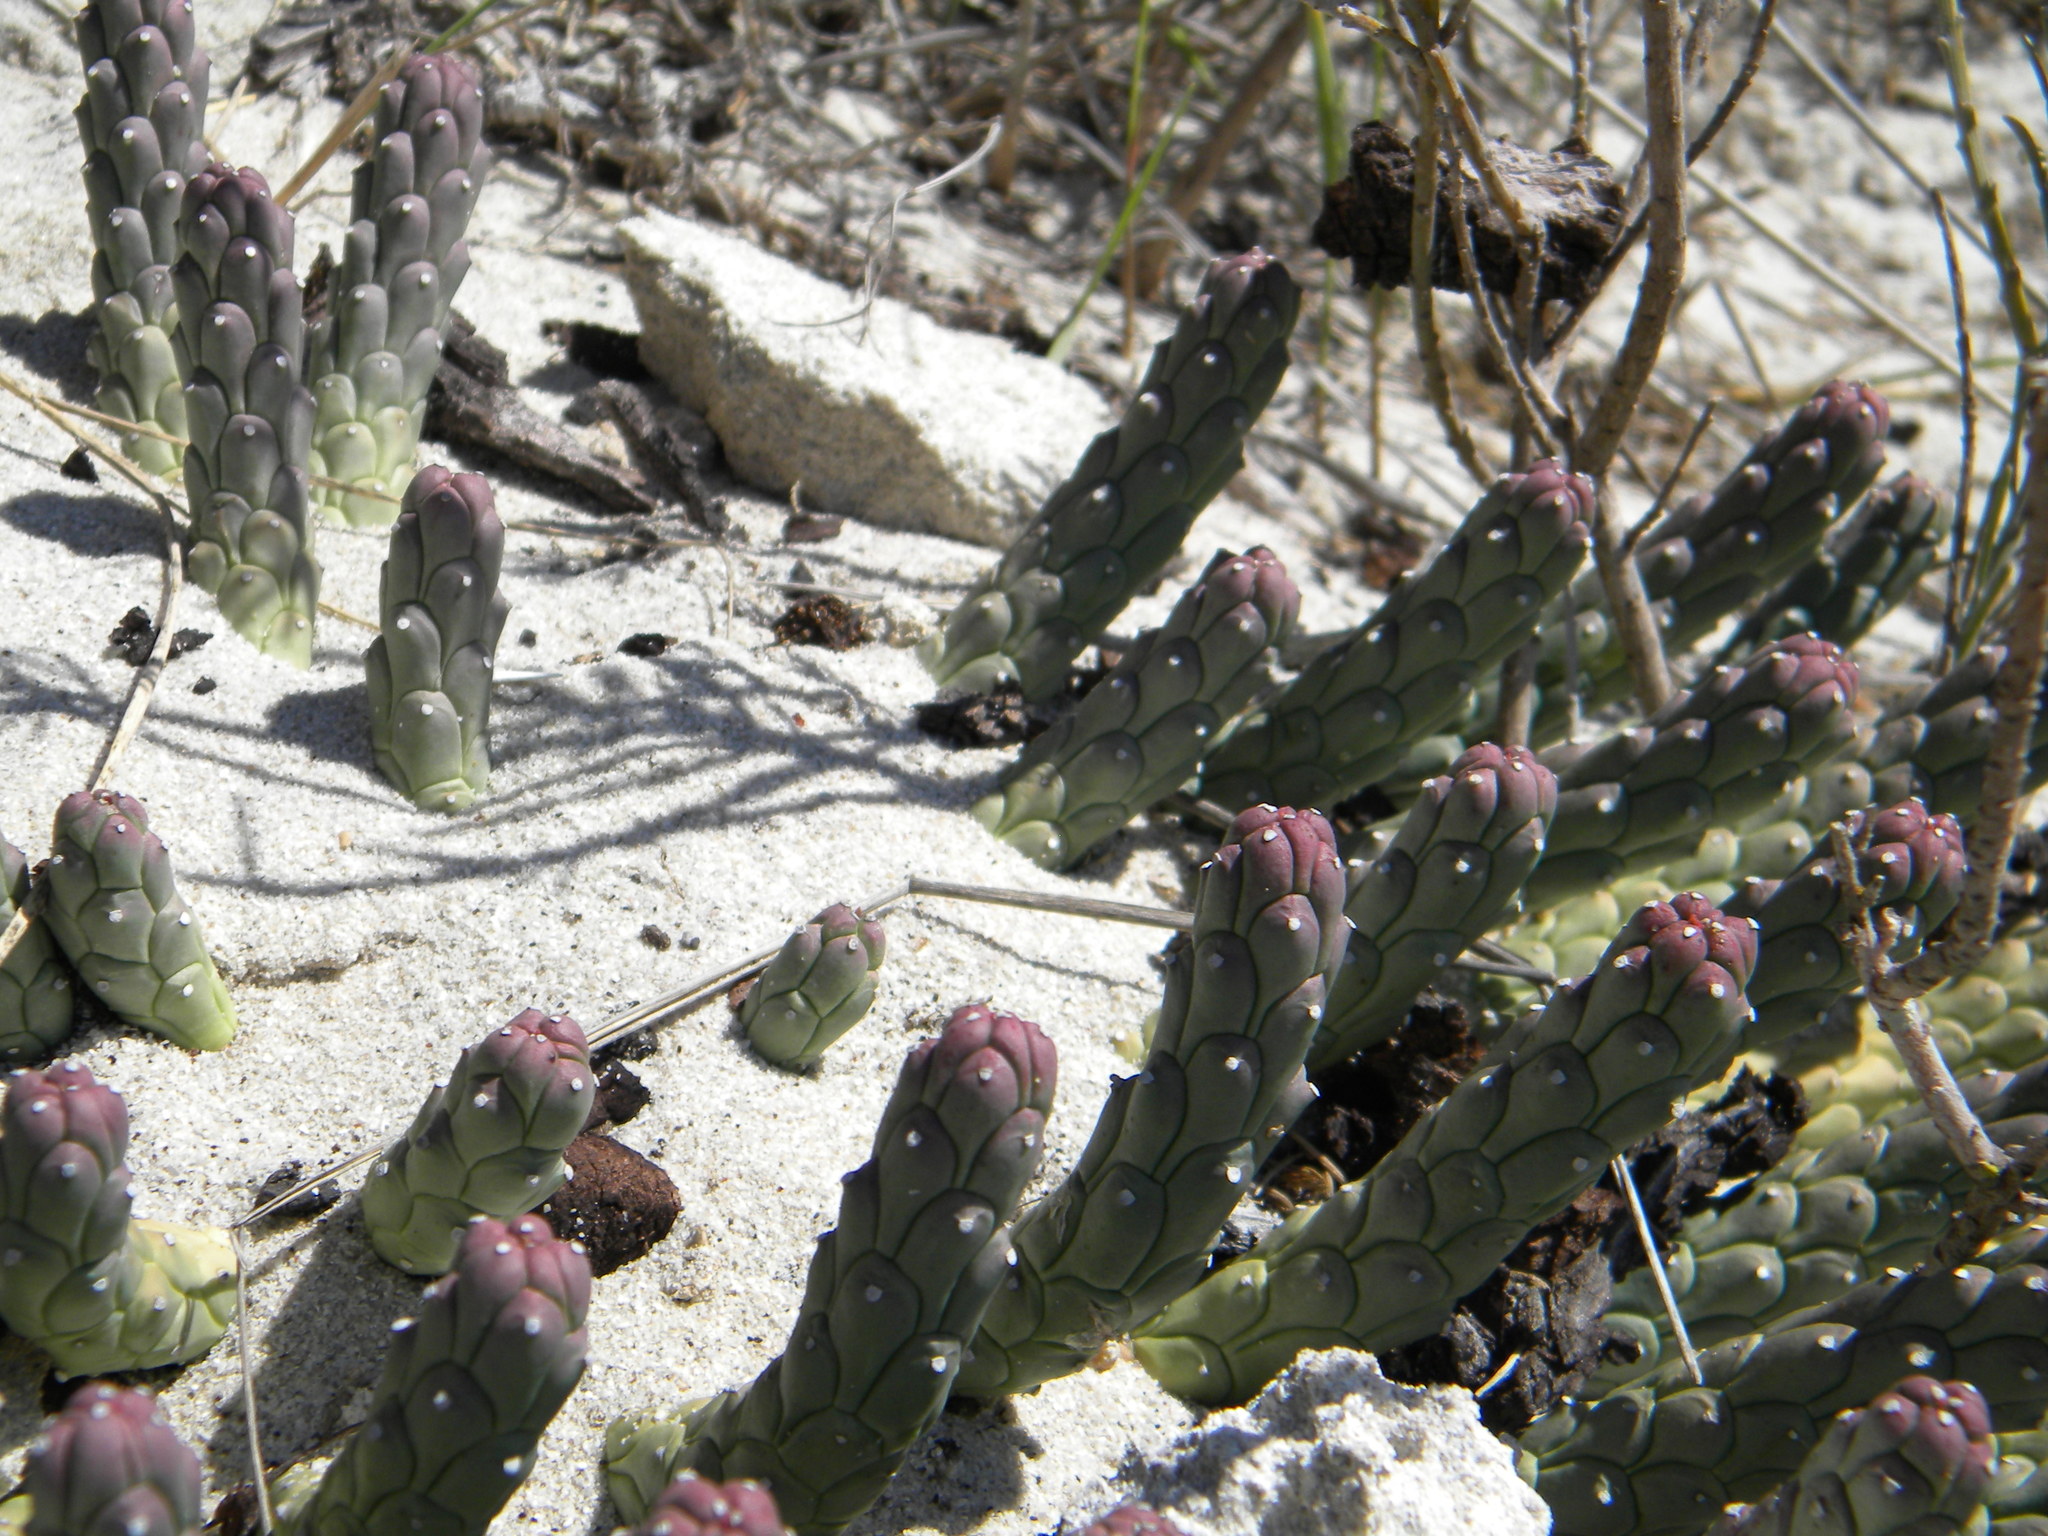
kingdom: Plantae
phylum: Tracheophyta
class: Magnoliopsida
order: Malpighiales
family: Euphorbiaceae
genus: Euphorbia
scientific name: Euphorbia caput-medusae
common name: Medusa's-head
